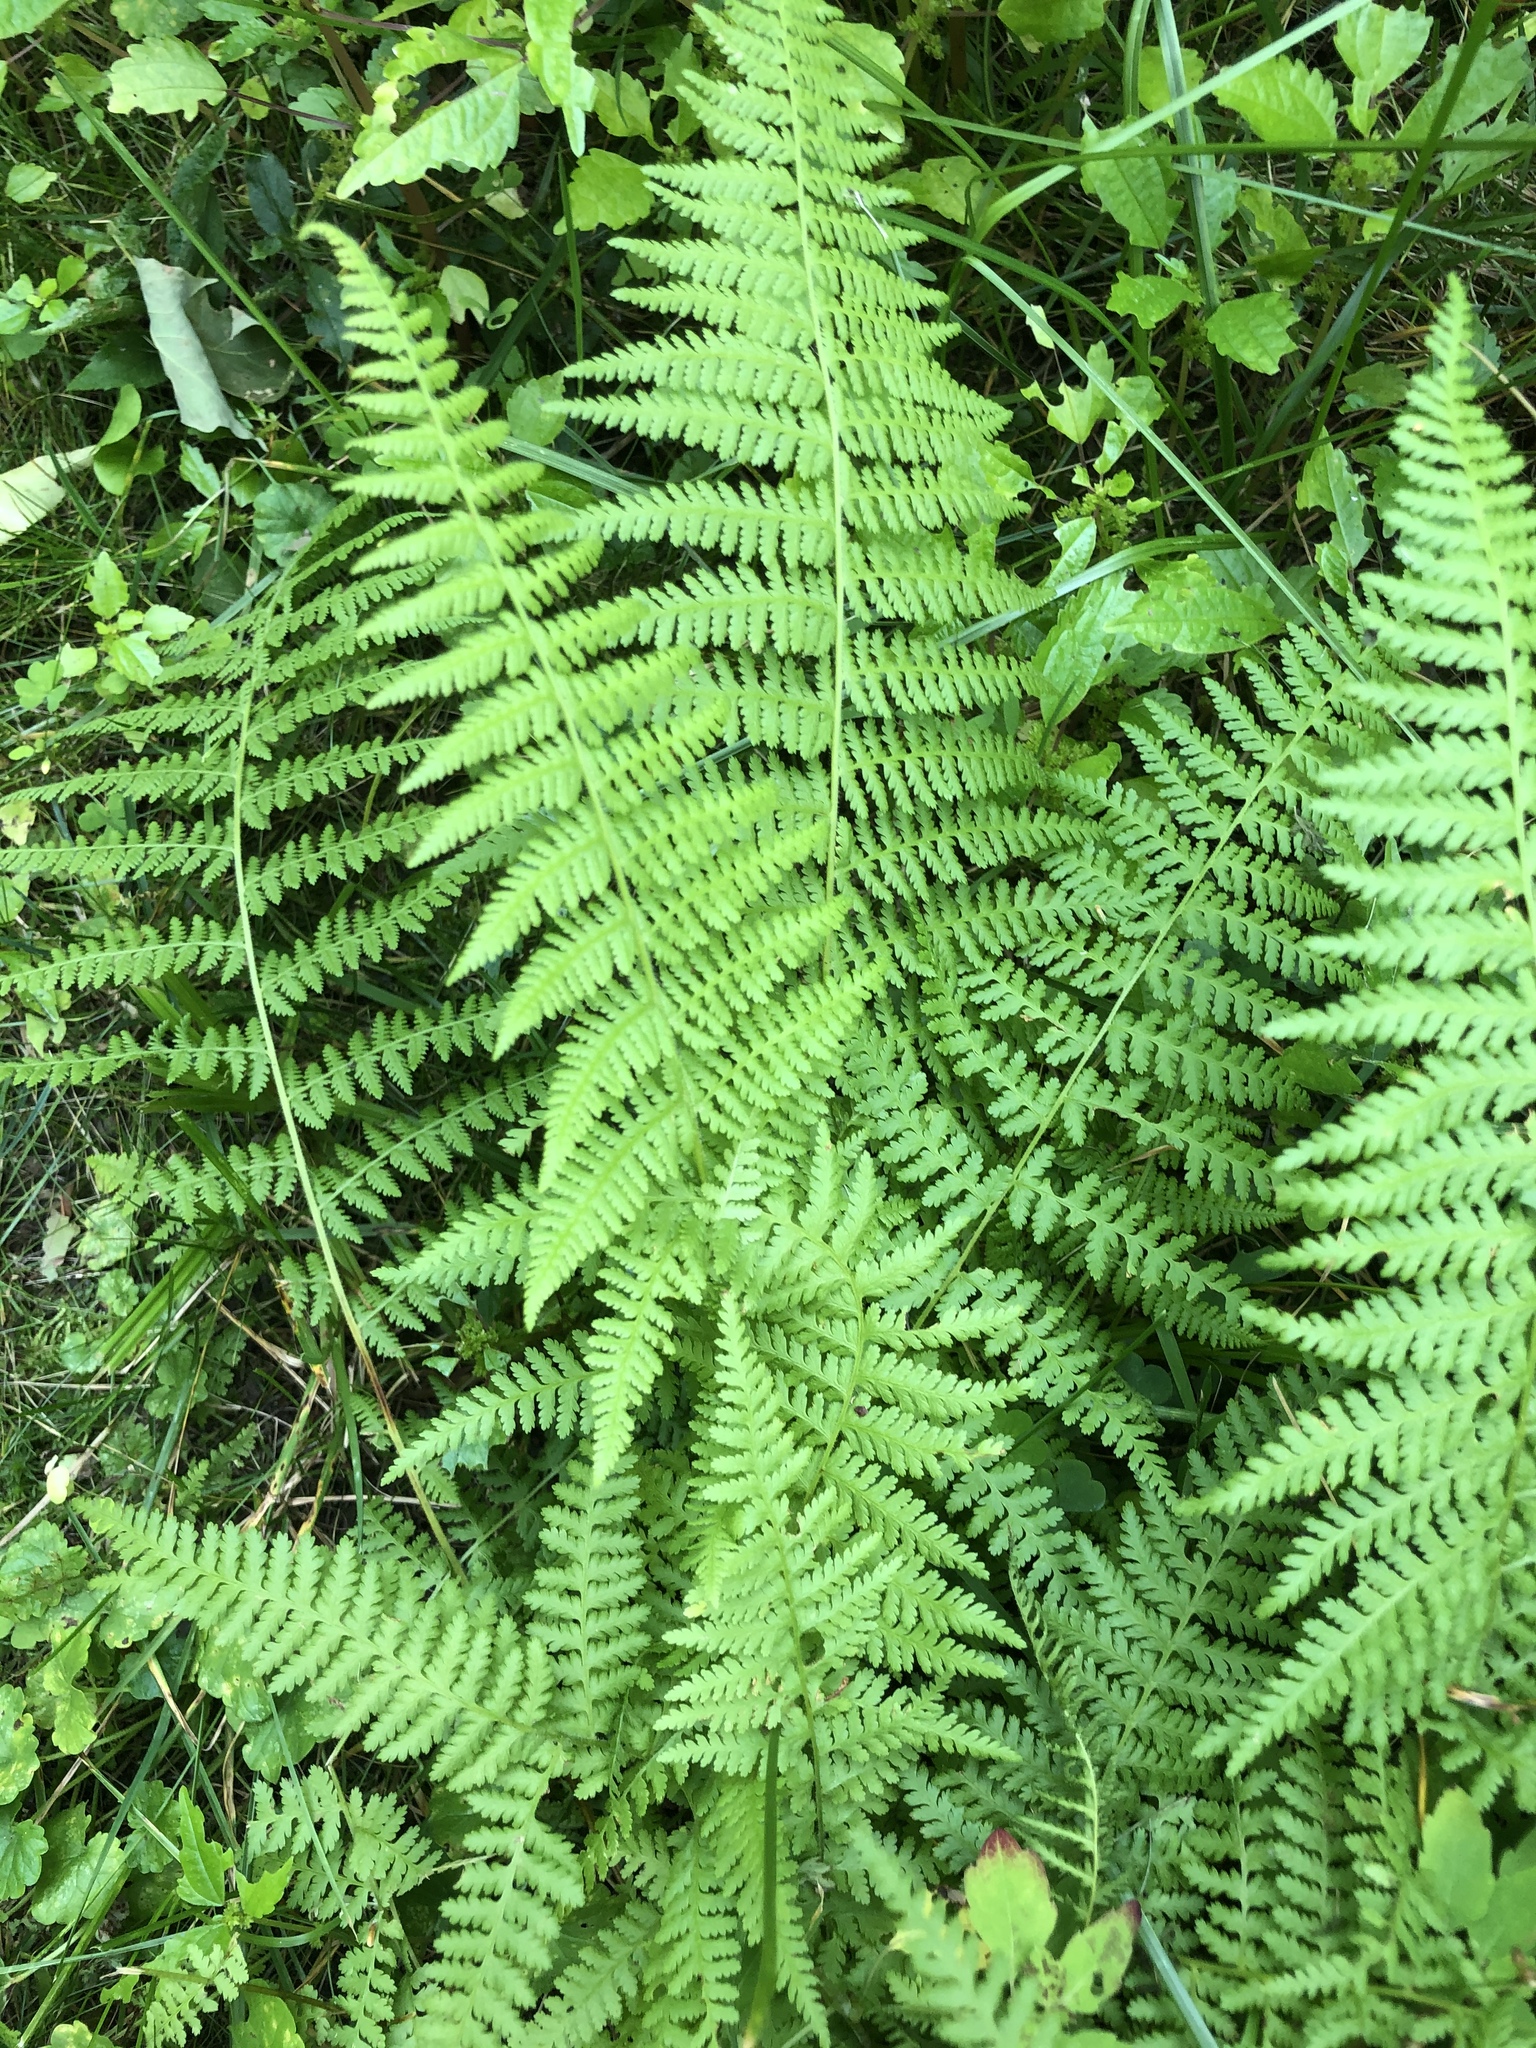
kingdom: Plantae
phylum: Tracheophyta
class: Polypodiopsida
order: Polypodiales
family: Dennstaedtiaceae
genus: Sitobolium
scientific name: Sitobolium punctilobum
